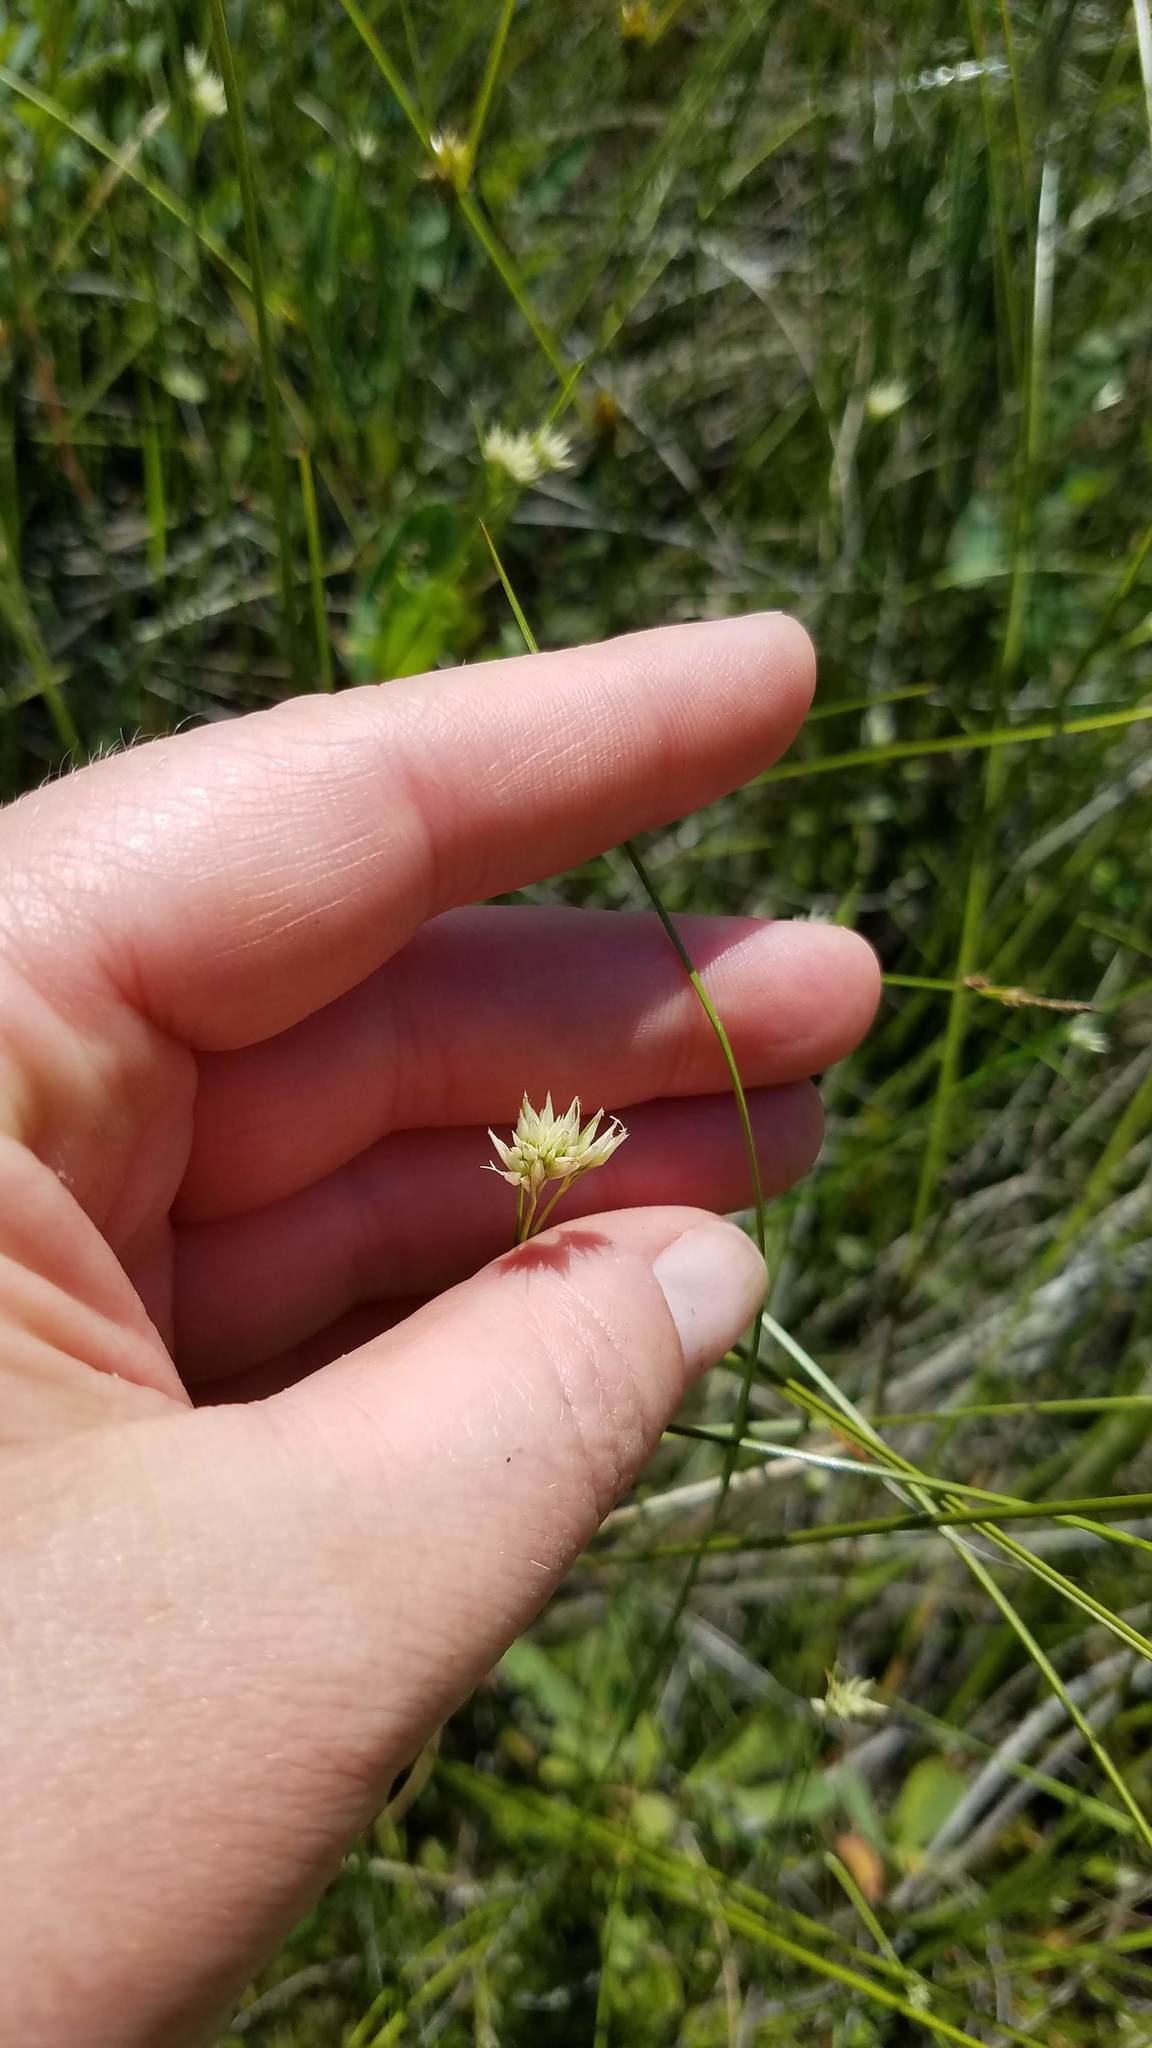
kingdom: Plantae
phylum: Tracheophyta
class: Liliopsida
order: Poales
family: Cyperaceae
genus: Rhynchospora
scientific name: Rhynchospora alba
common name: White beak-sedge
